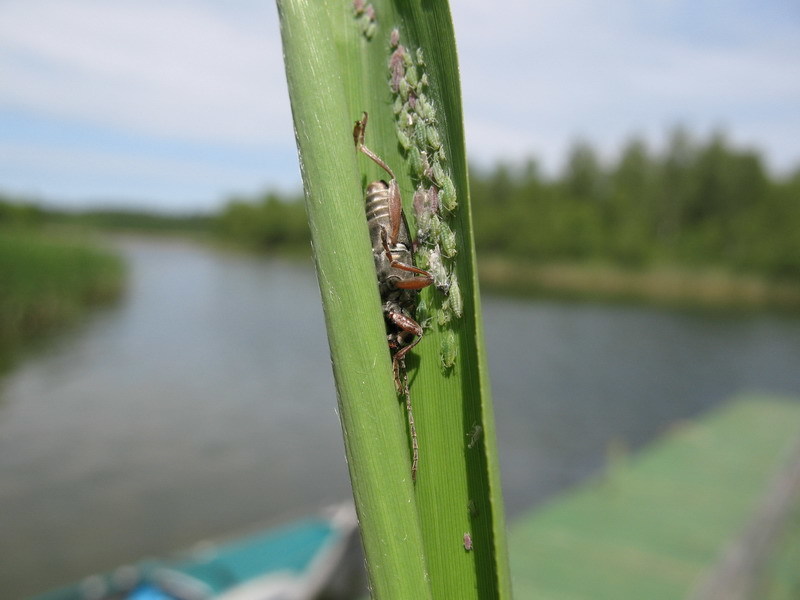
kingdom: Animalia
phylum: Arthropoda
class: Insecta
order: Coleoptera
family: Chrysomelidae
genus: Donacia
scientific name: Donacia clavipes
